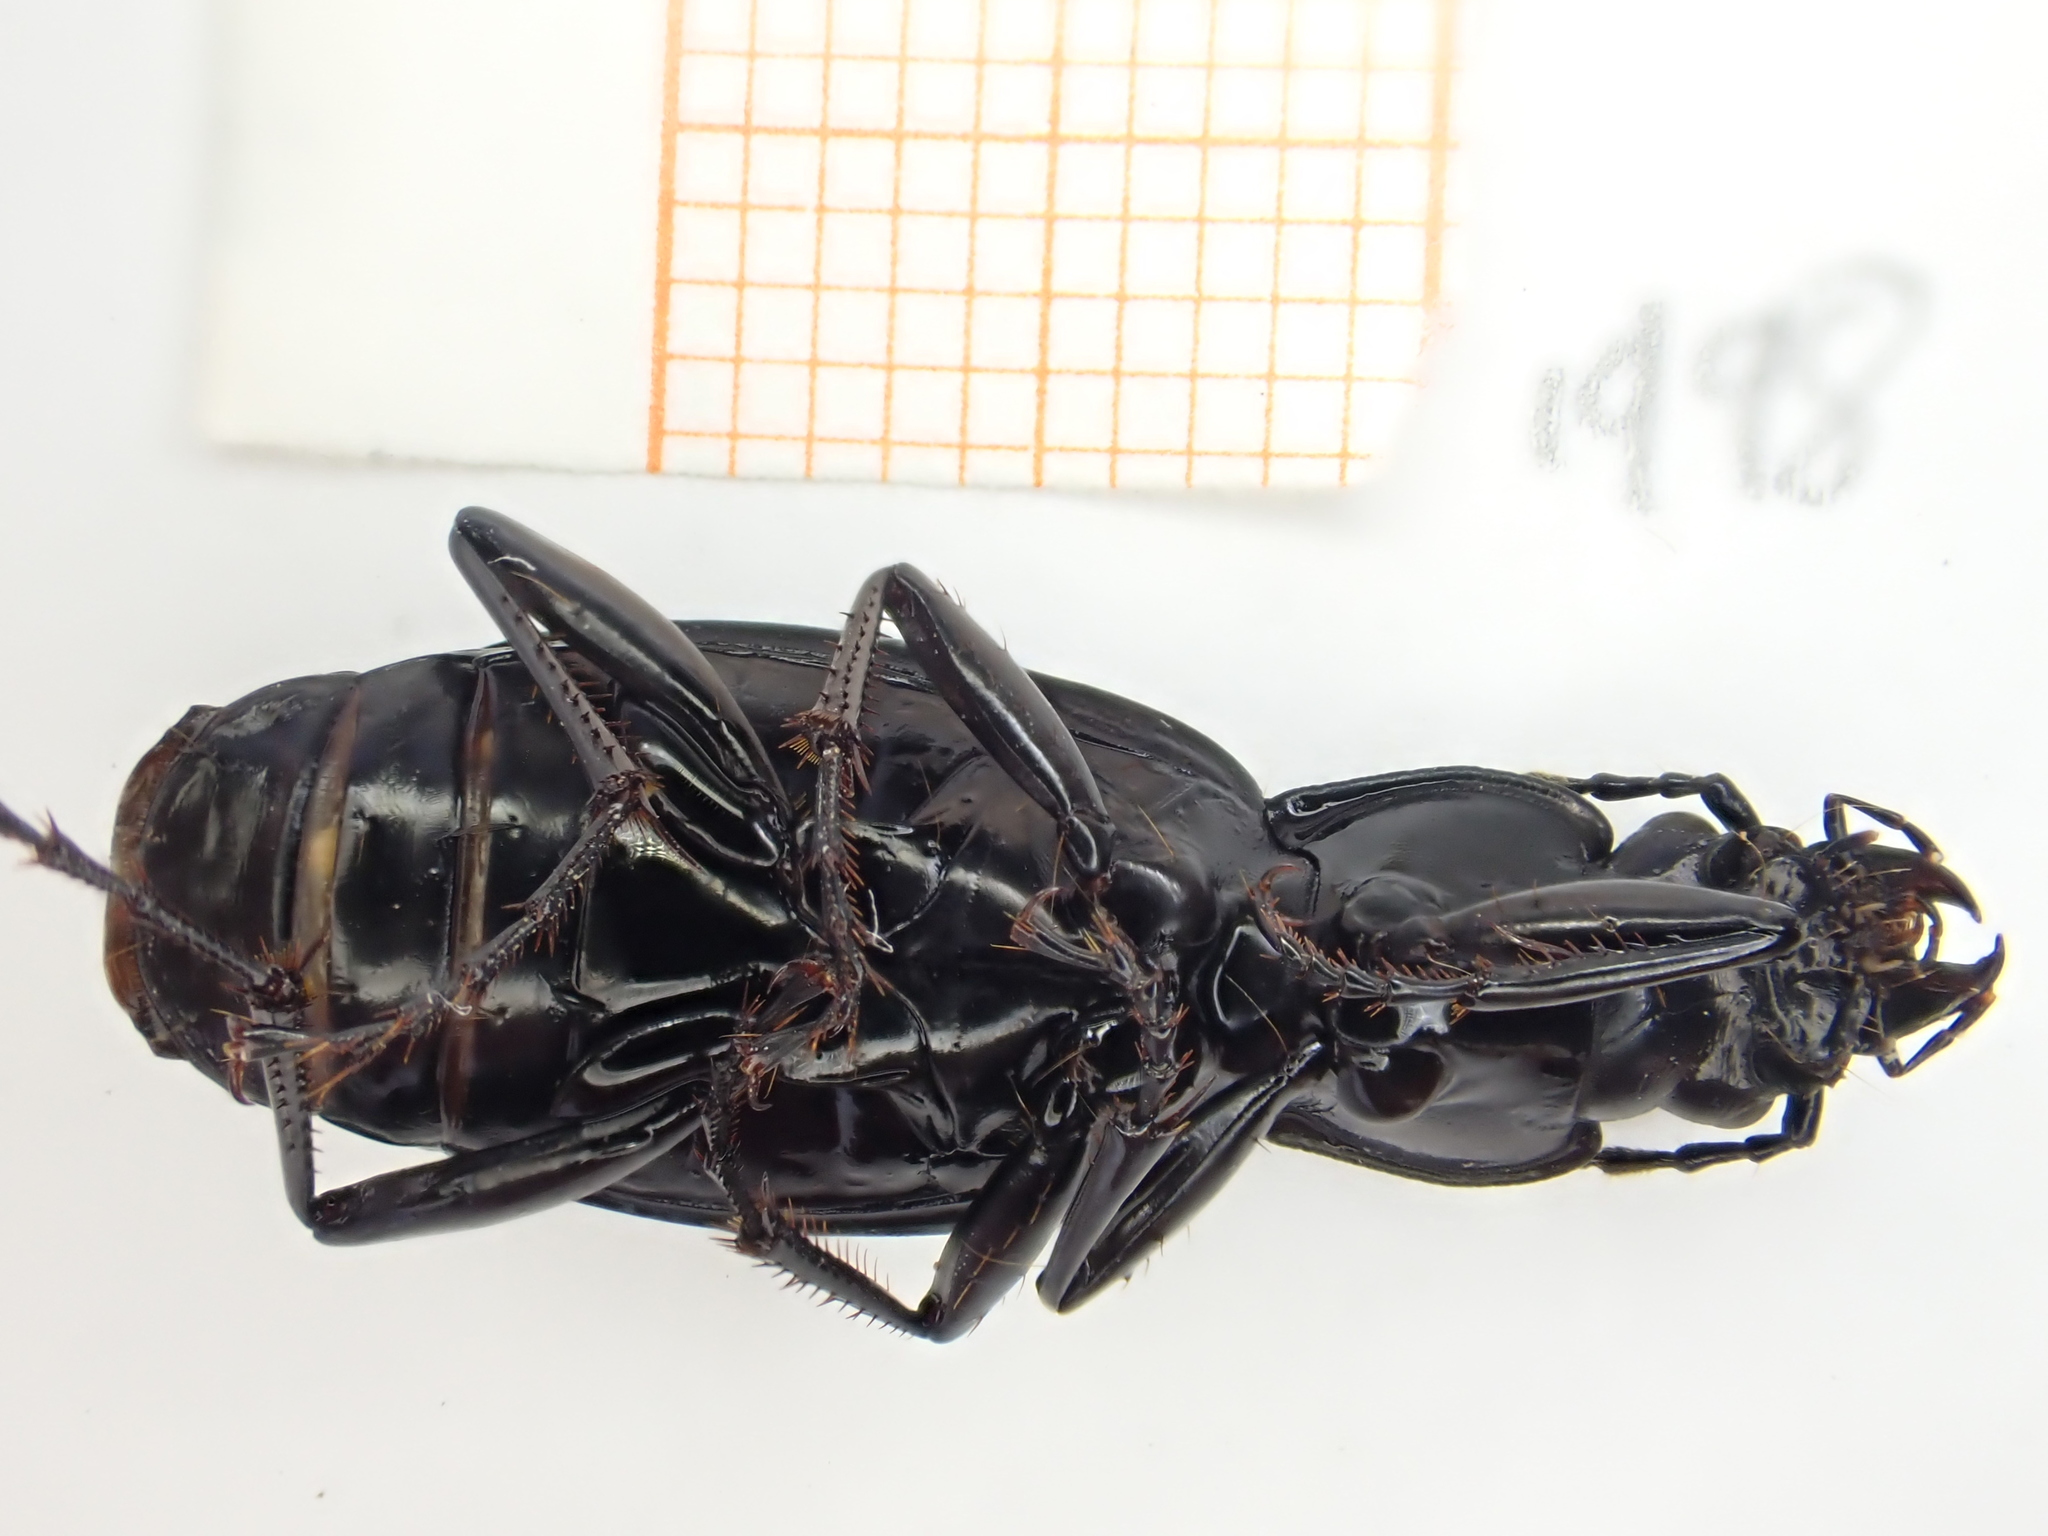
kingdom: Animalia
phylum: Arthropoda
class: Insecta
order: Coleoptera
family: Carabidae
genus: Pterostichus
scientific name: Pterostichus niger
